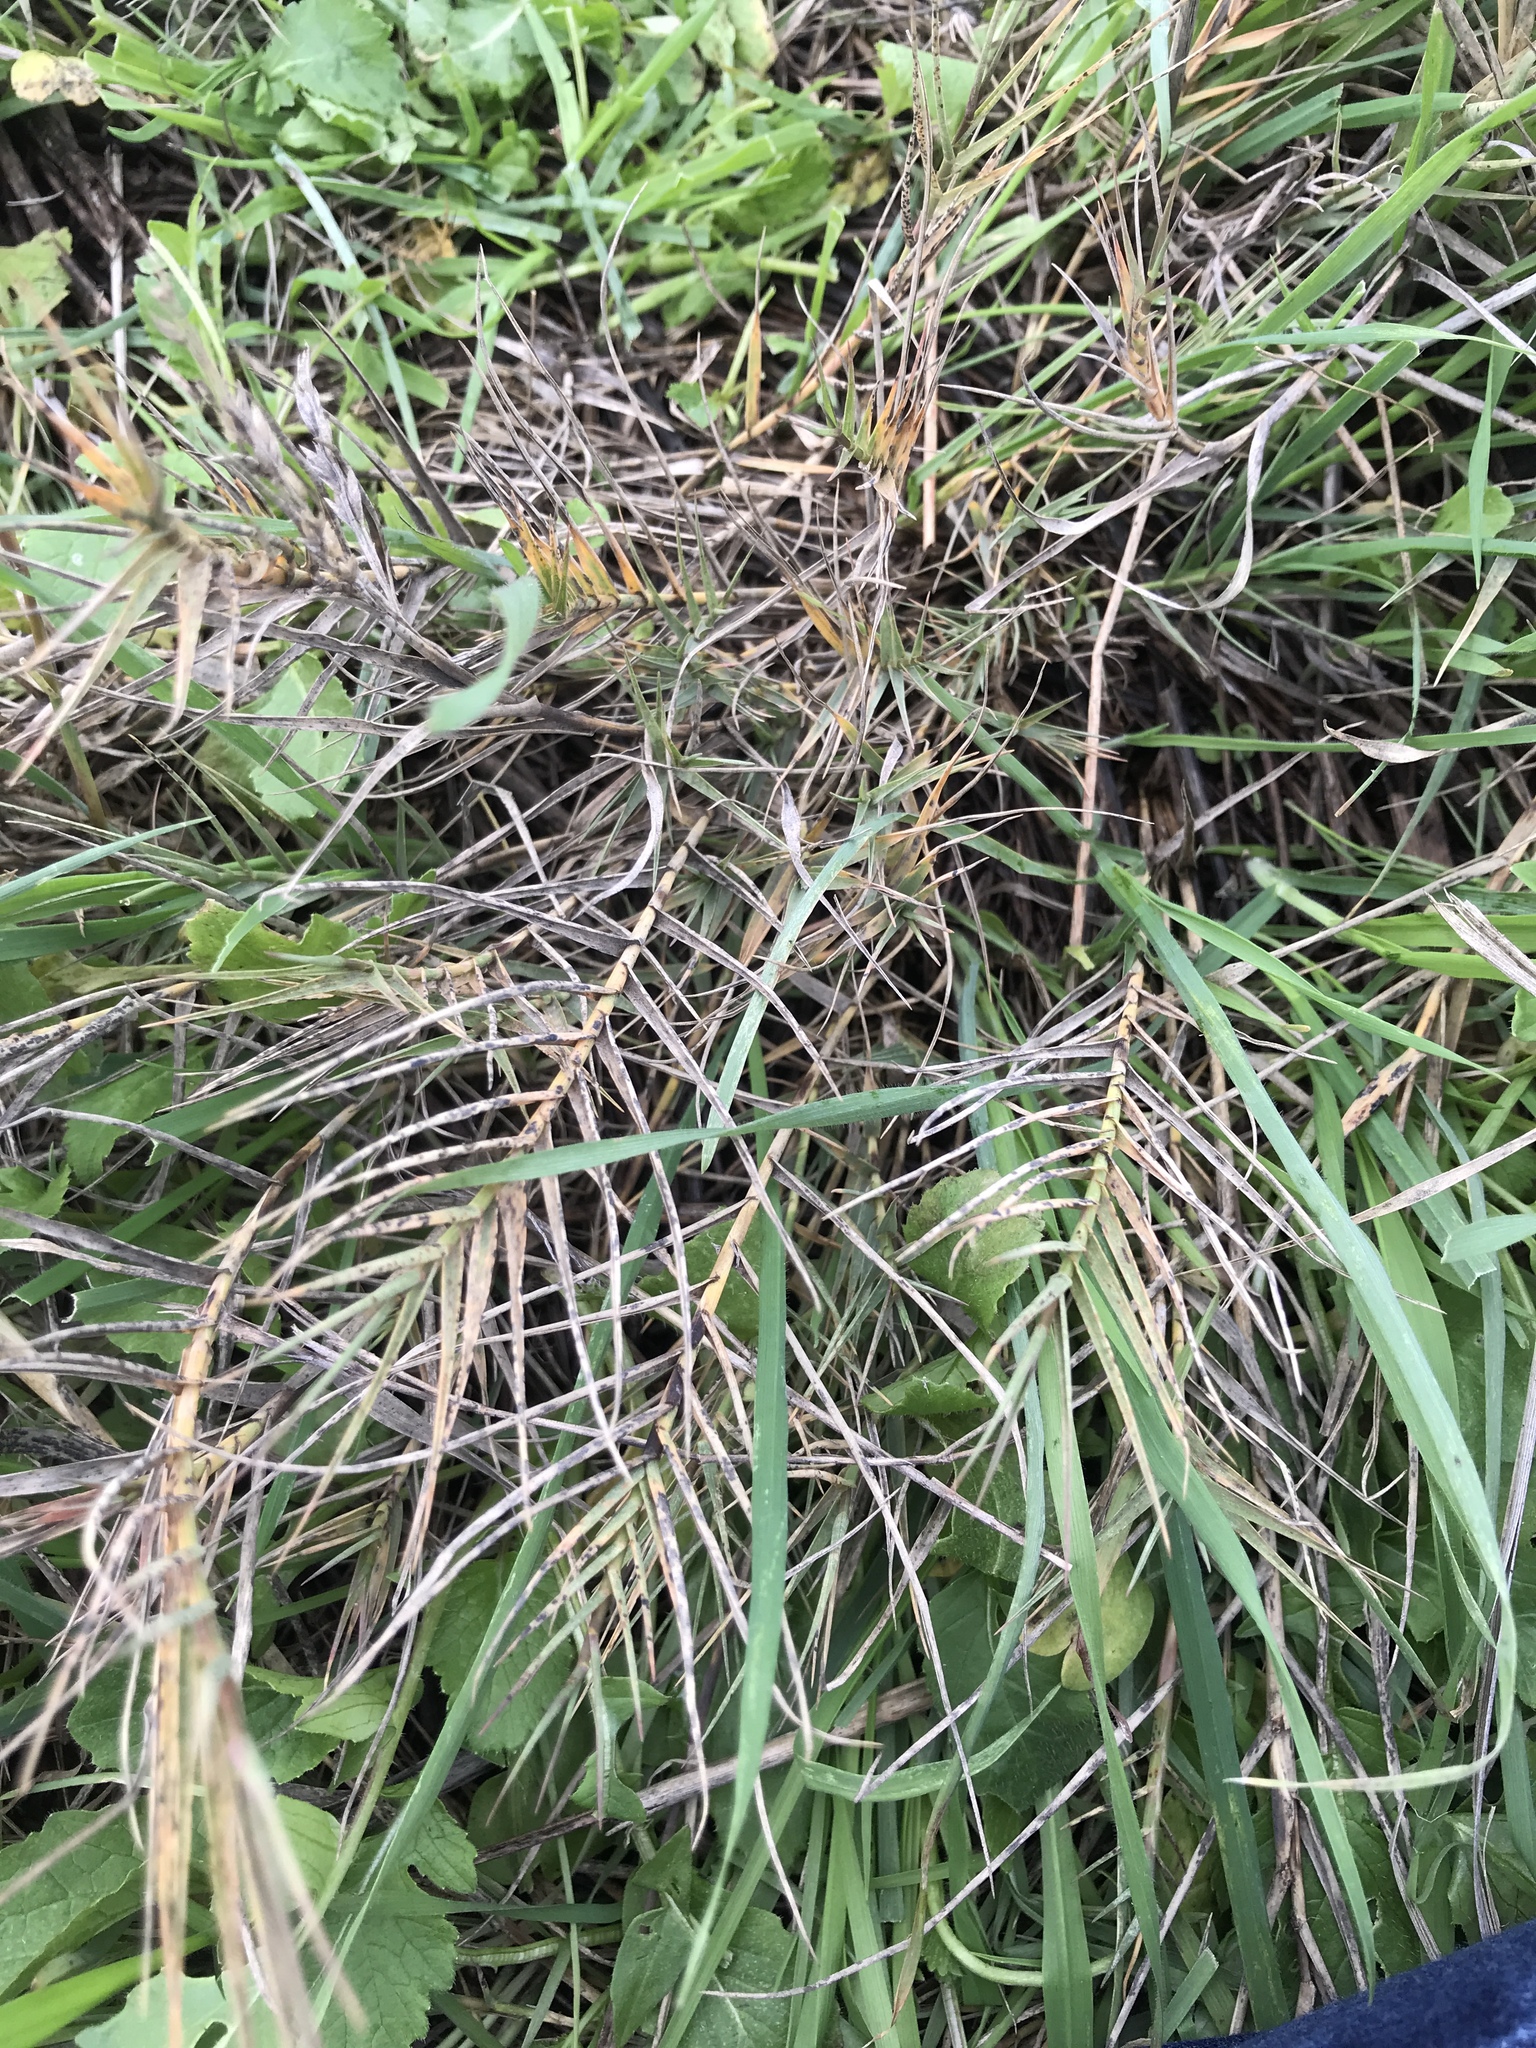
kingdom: Plantae
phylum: Tracheophyta
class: Liliopsida
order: Poales
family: Poaceae
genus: Distichlis
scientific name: Distichlis spicata
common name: Saltgrass
